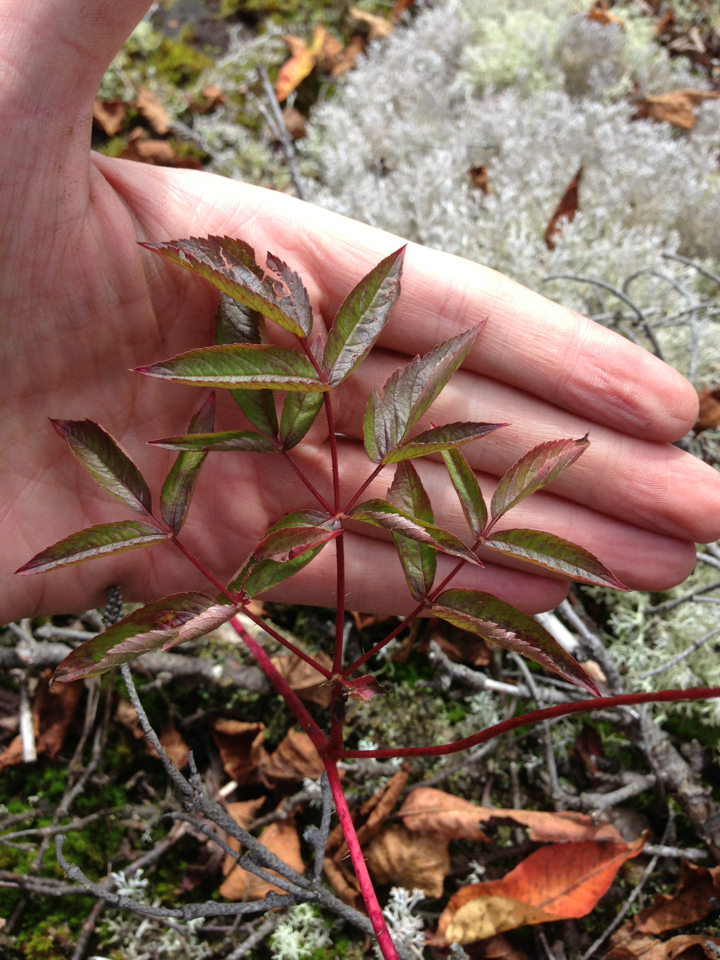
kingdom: Plantae
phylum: Tracheophyta
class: Magnoliopsida
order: Apiales
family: Araliaceae
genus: Aralia
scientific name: Aralia hispida
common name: Bristly sarsaparilla
